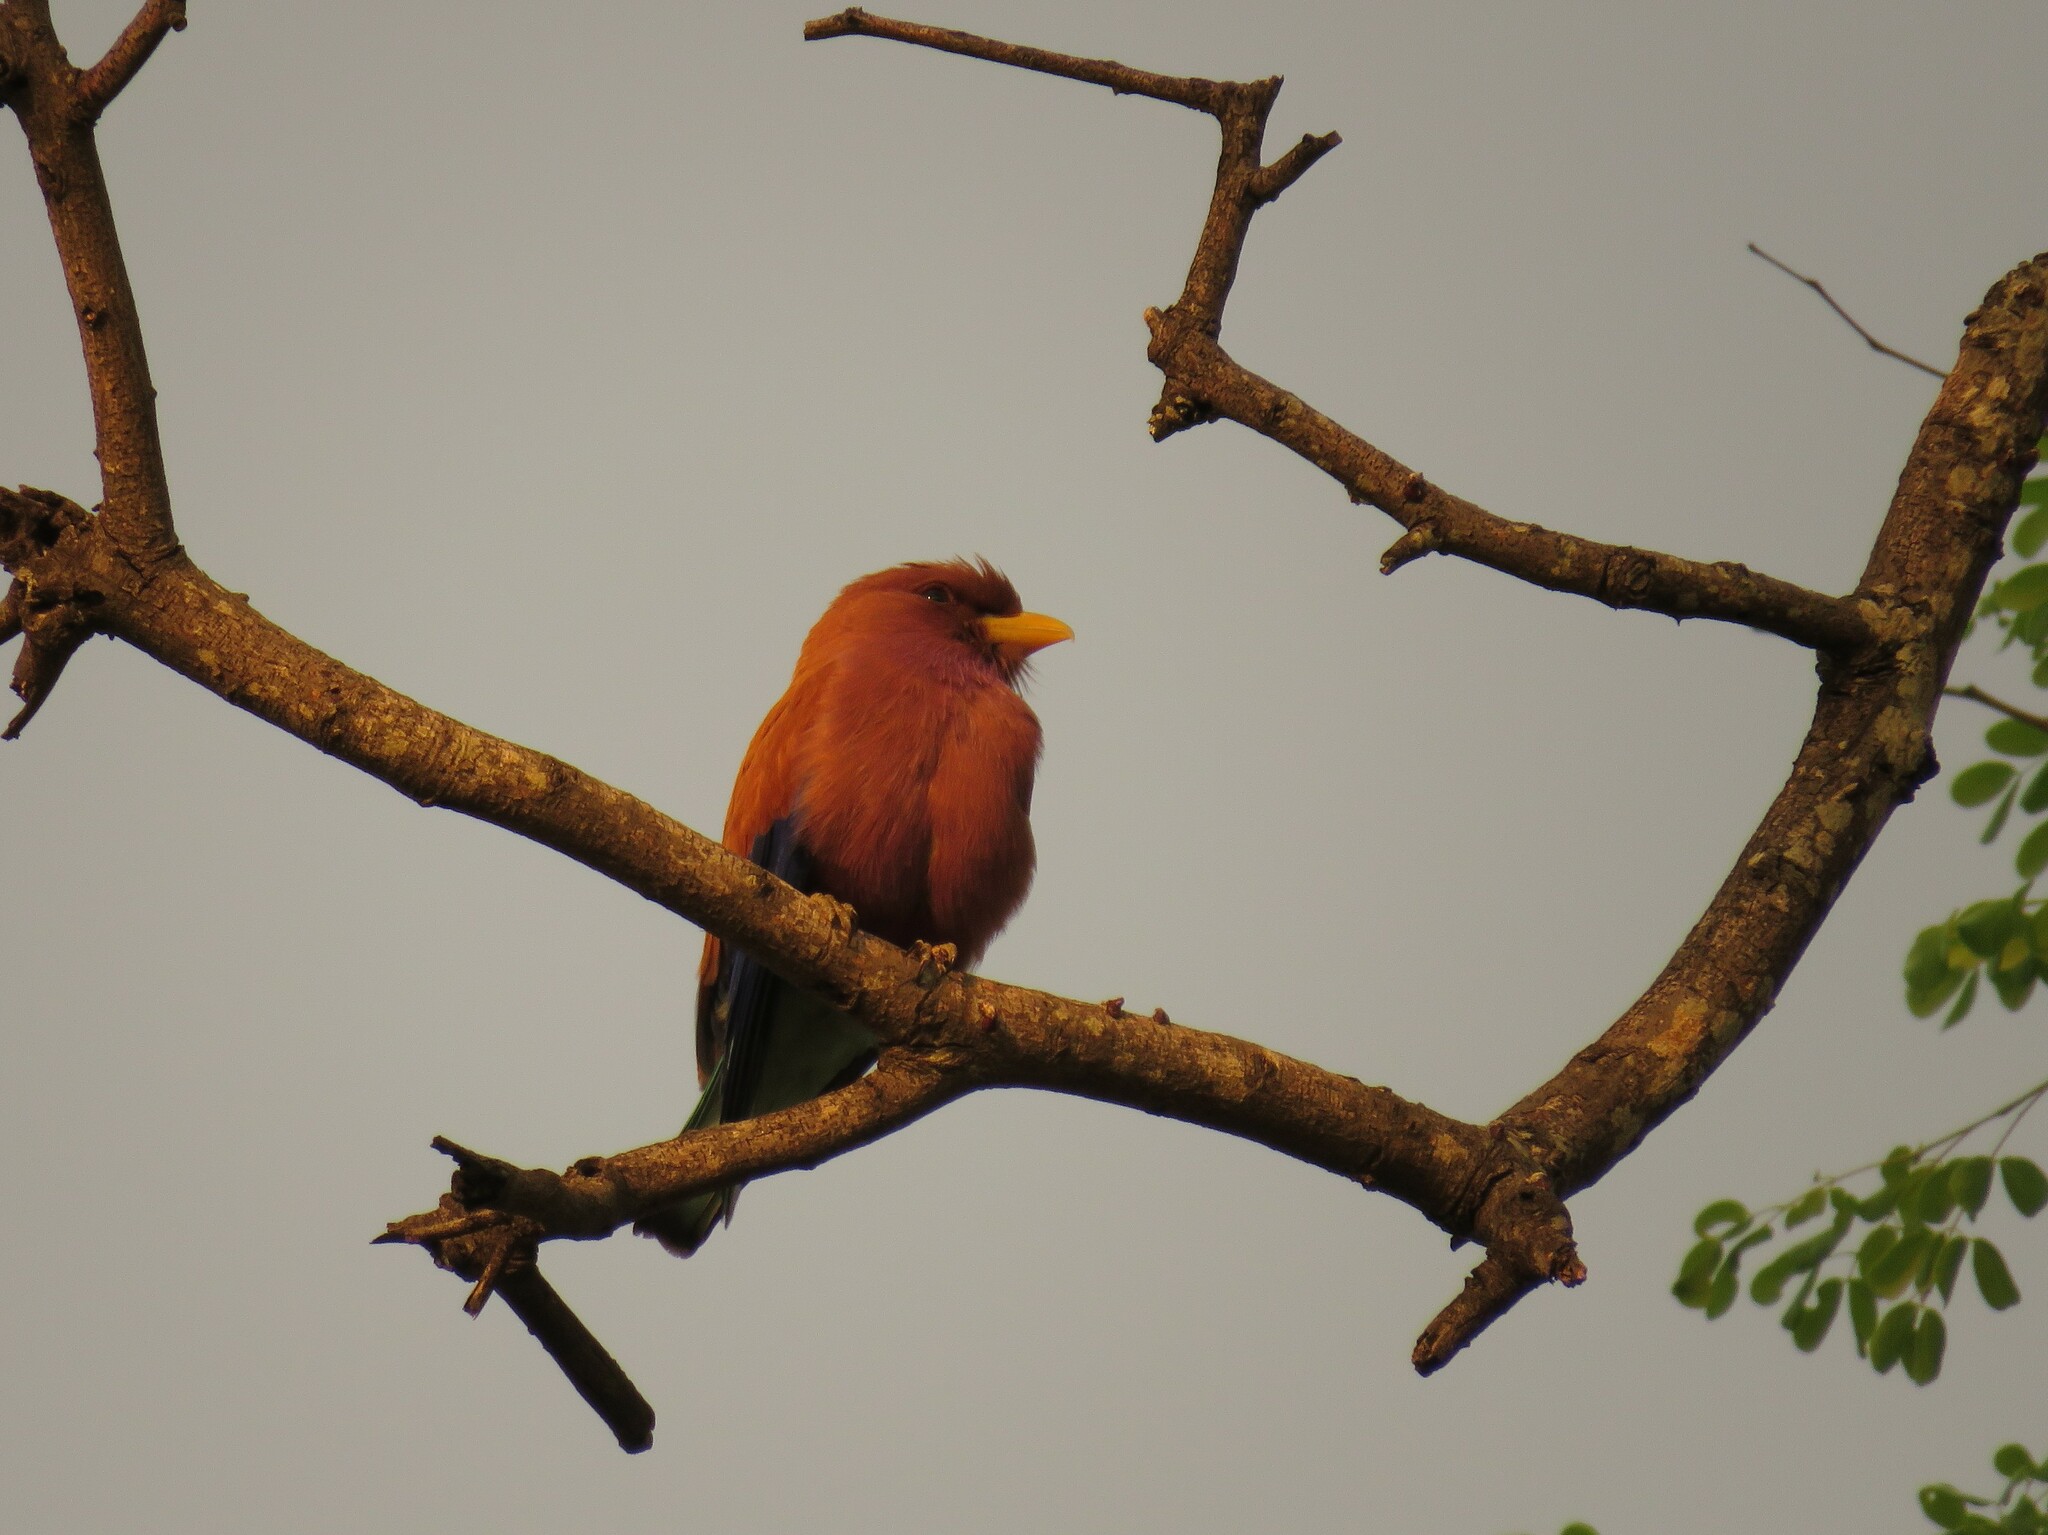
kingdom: Animalia
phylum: Chordata
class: Aves
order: Coraciiformes
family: Coraciidae
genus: Eurystomus
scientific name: Eurystomus glaucurus
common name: Broad-billed roller
